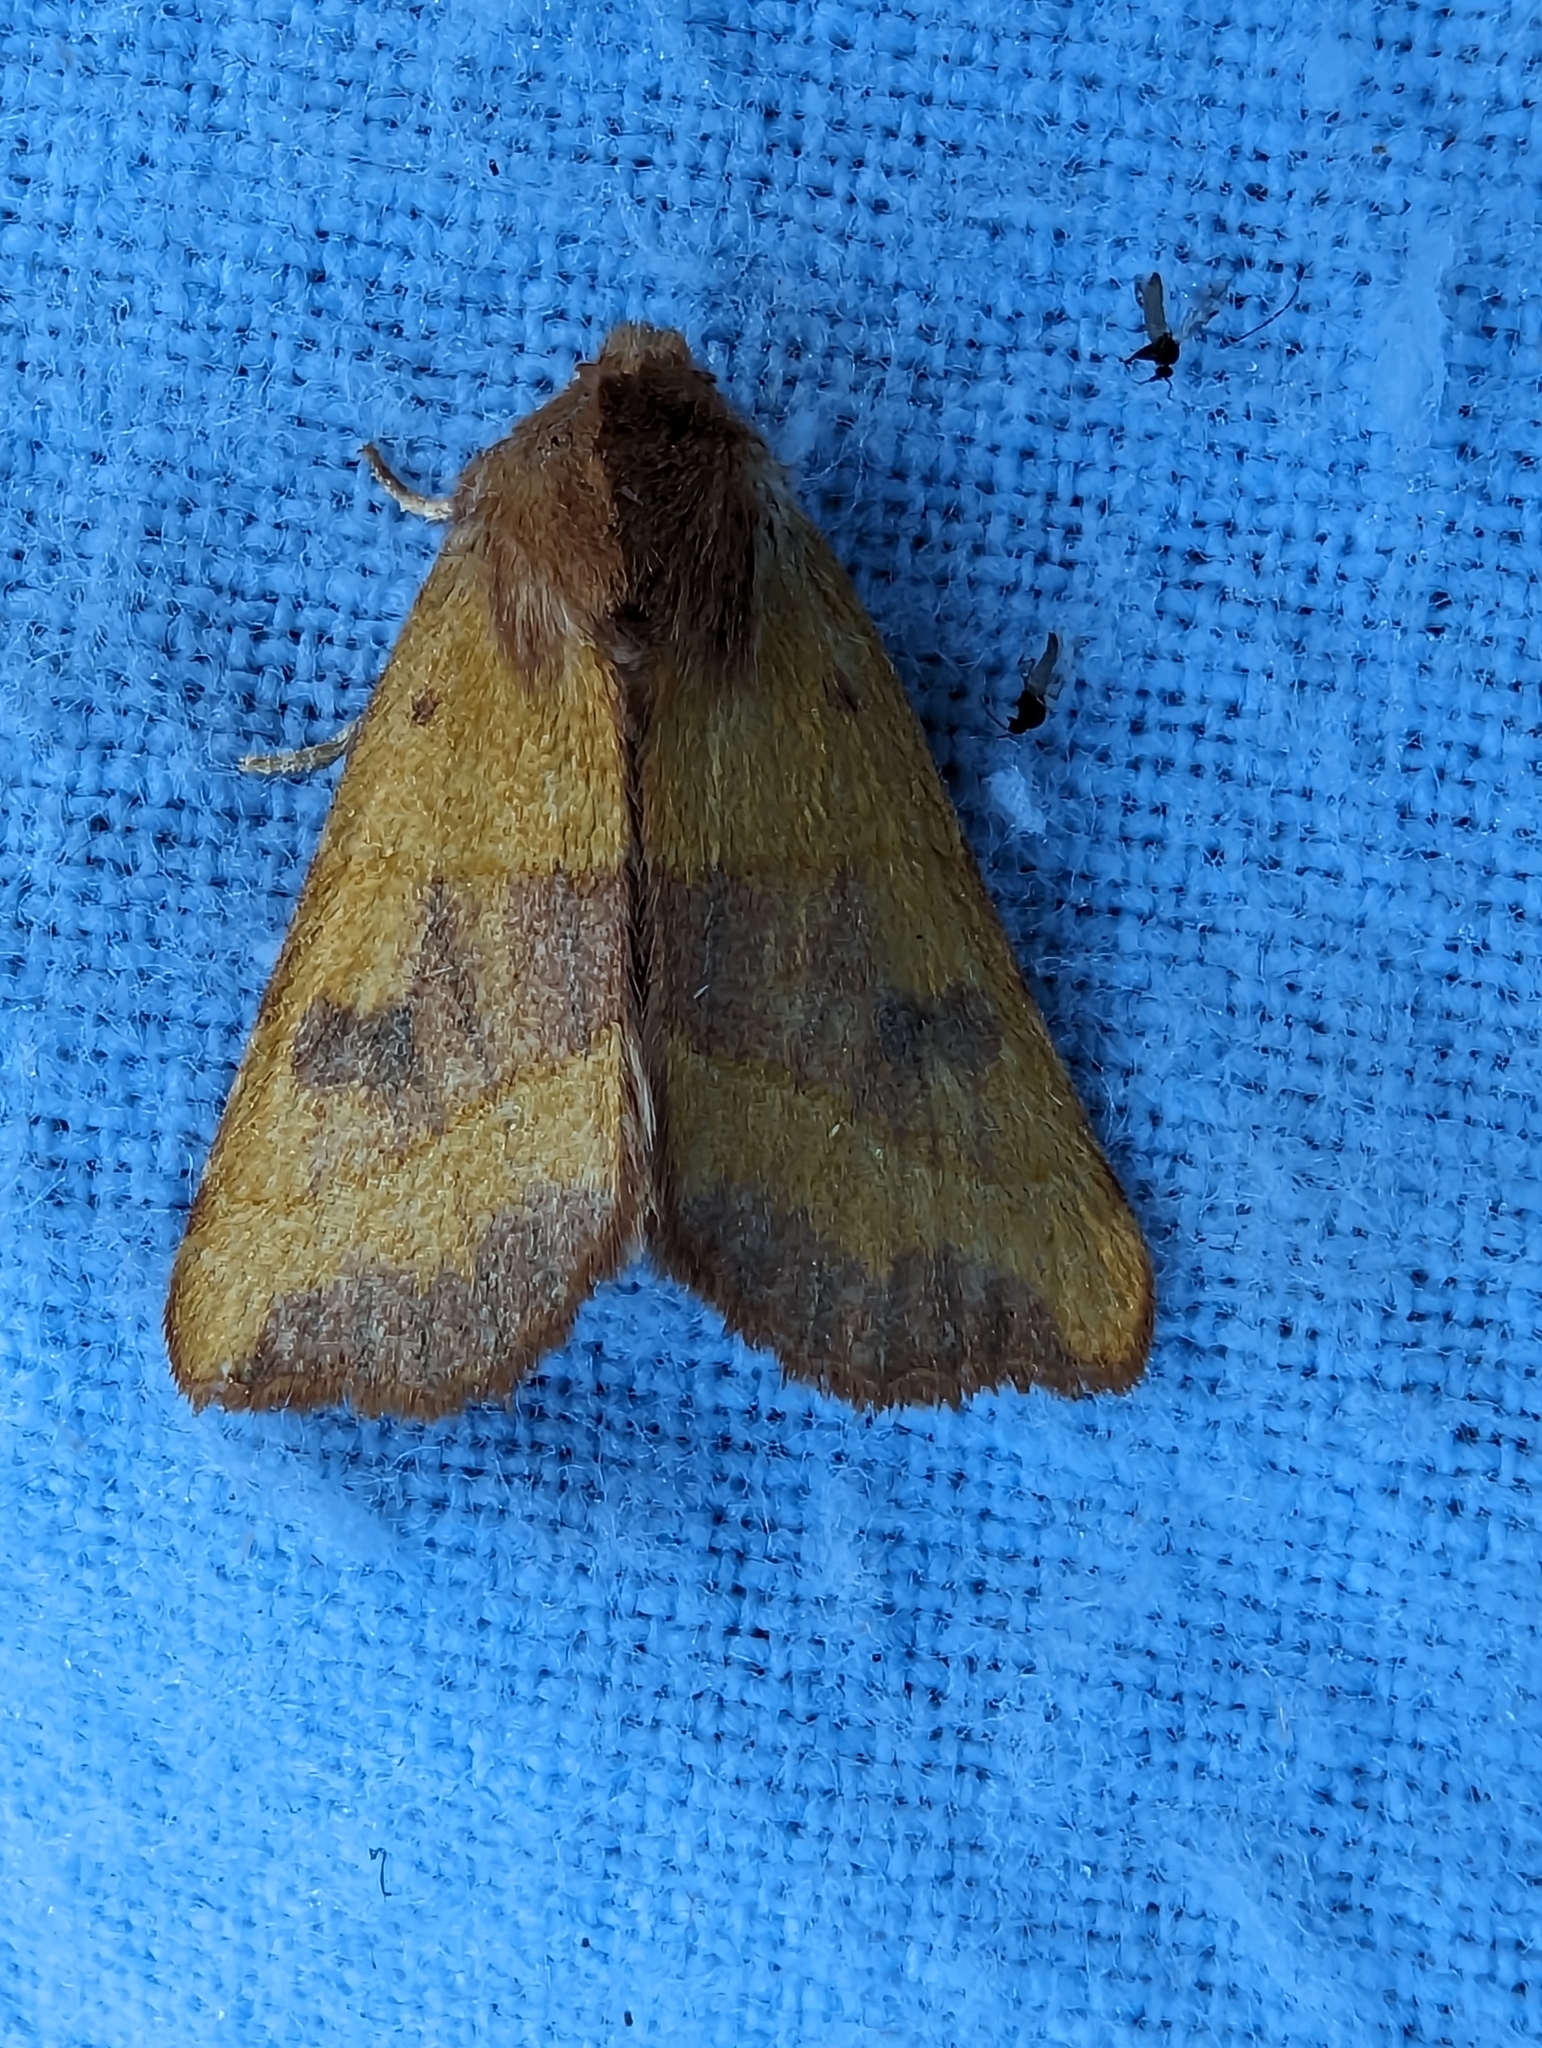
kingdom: Animalia
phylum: Arthropoda
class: Insecta
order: Lepidoptera
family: Noctuidae
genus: Atethmia
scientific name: Atethmia centrago
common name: Centre-barred sallow
